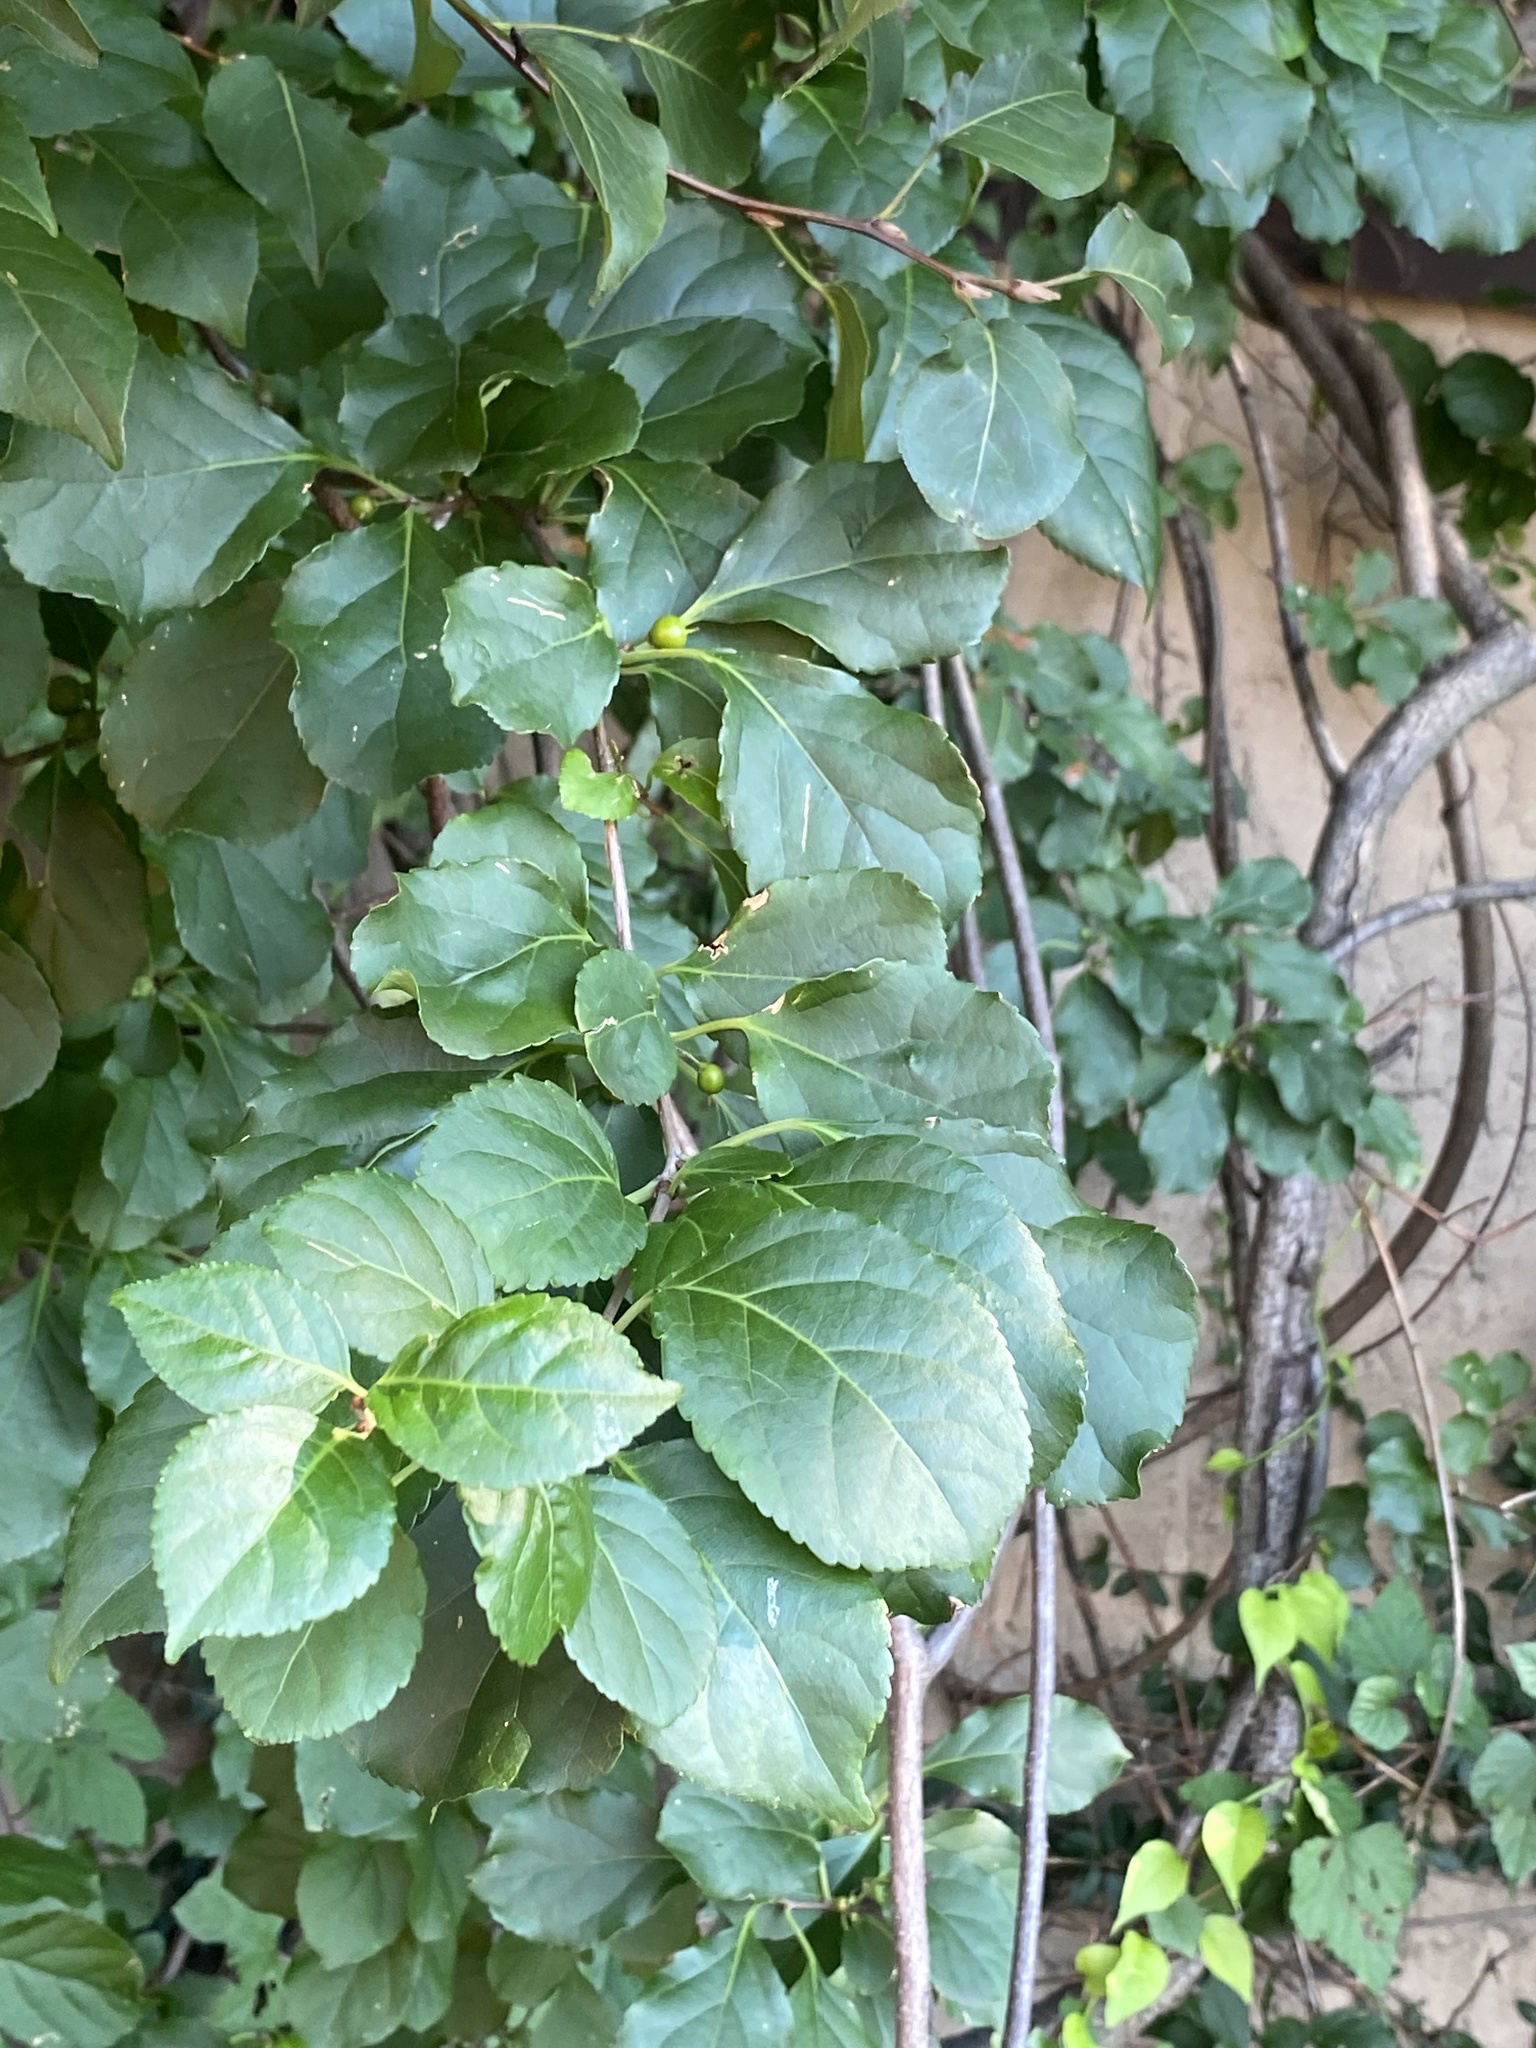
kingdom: Plantae
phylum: Tracheophyta
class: Magnoliopsida
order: Celastrales
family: Celastraceae
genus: Celastrus
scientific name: Celastrus orbiculatus
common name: Oriental bittersweet
